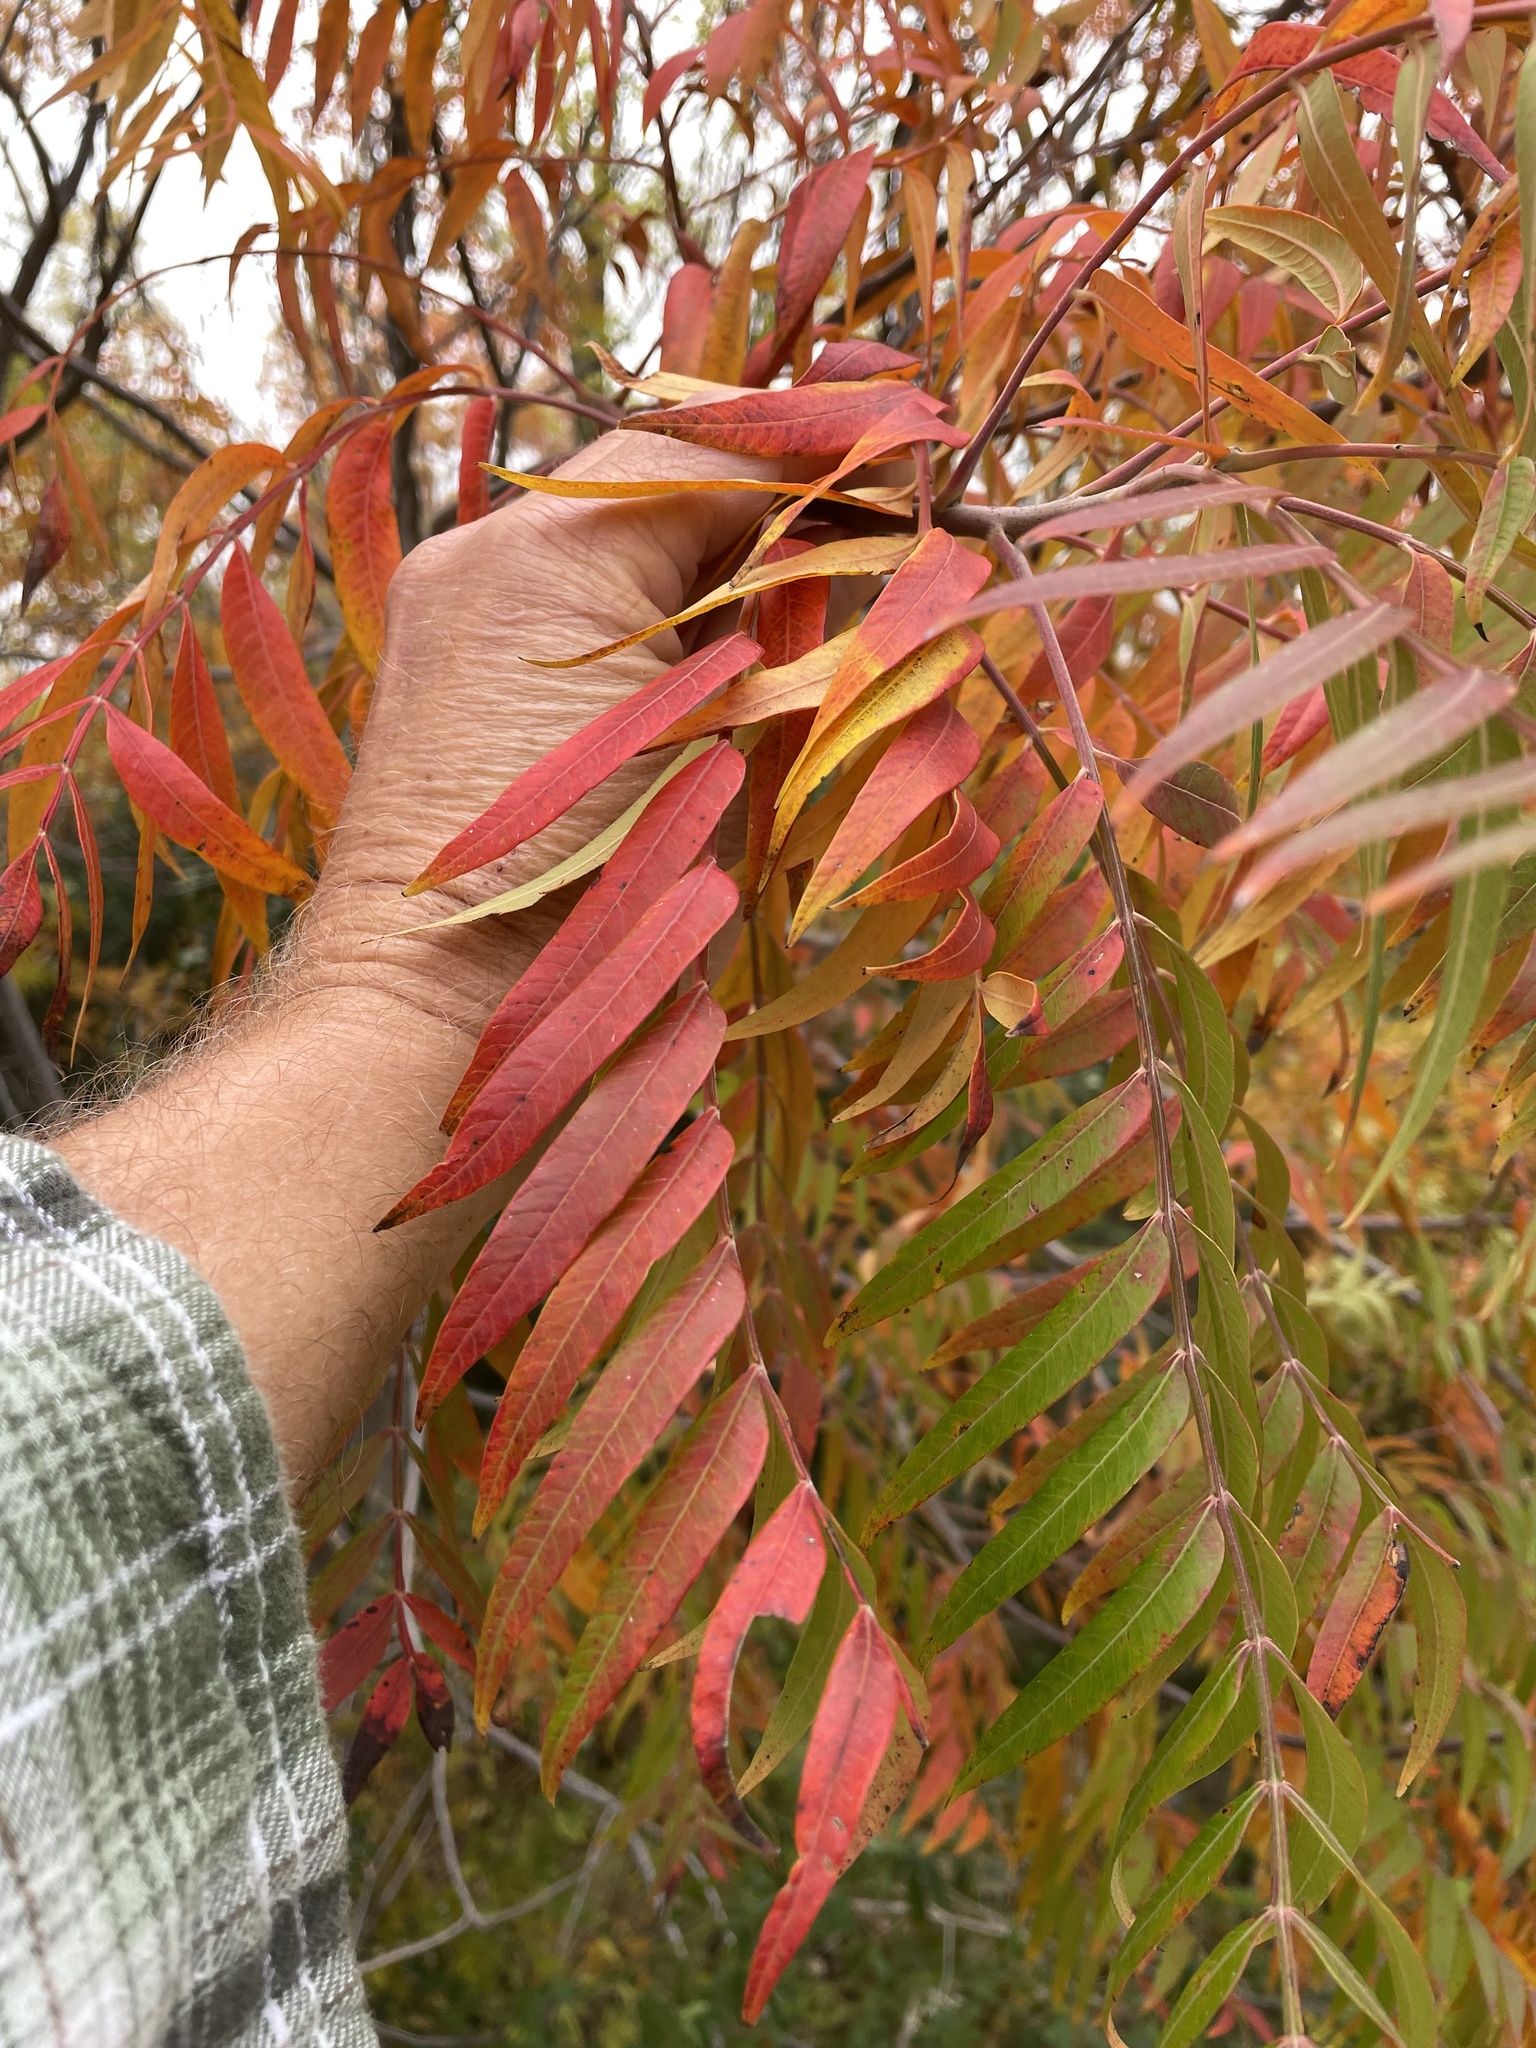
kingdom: Plantae
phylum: Tracheophyta
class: Magnoliopsida
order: Sapindales
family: Anacardiaceae
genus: Rhus
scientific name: Rhus lanceolata
